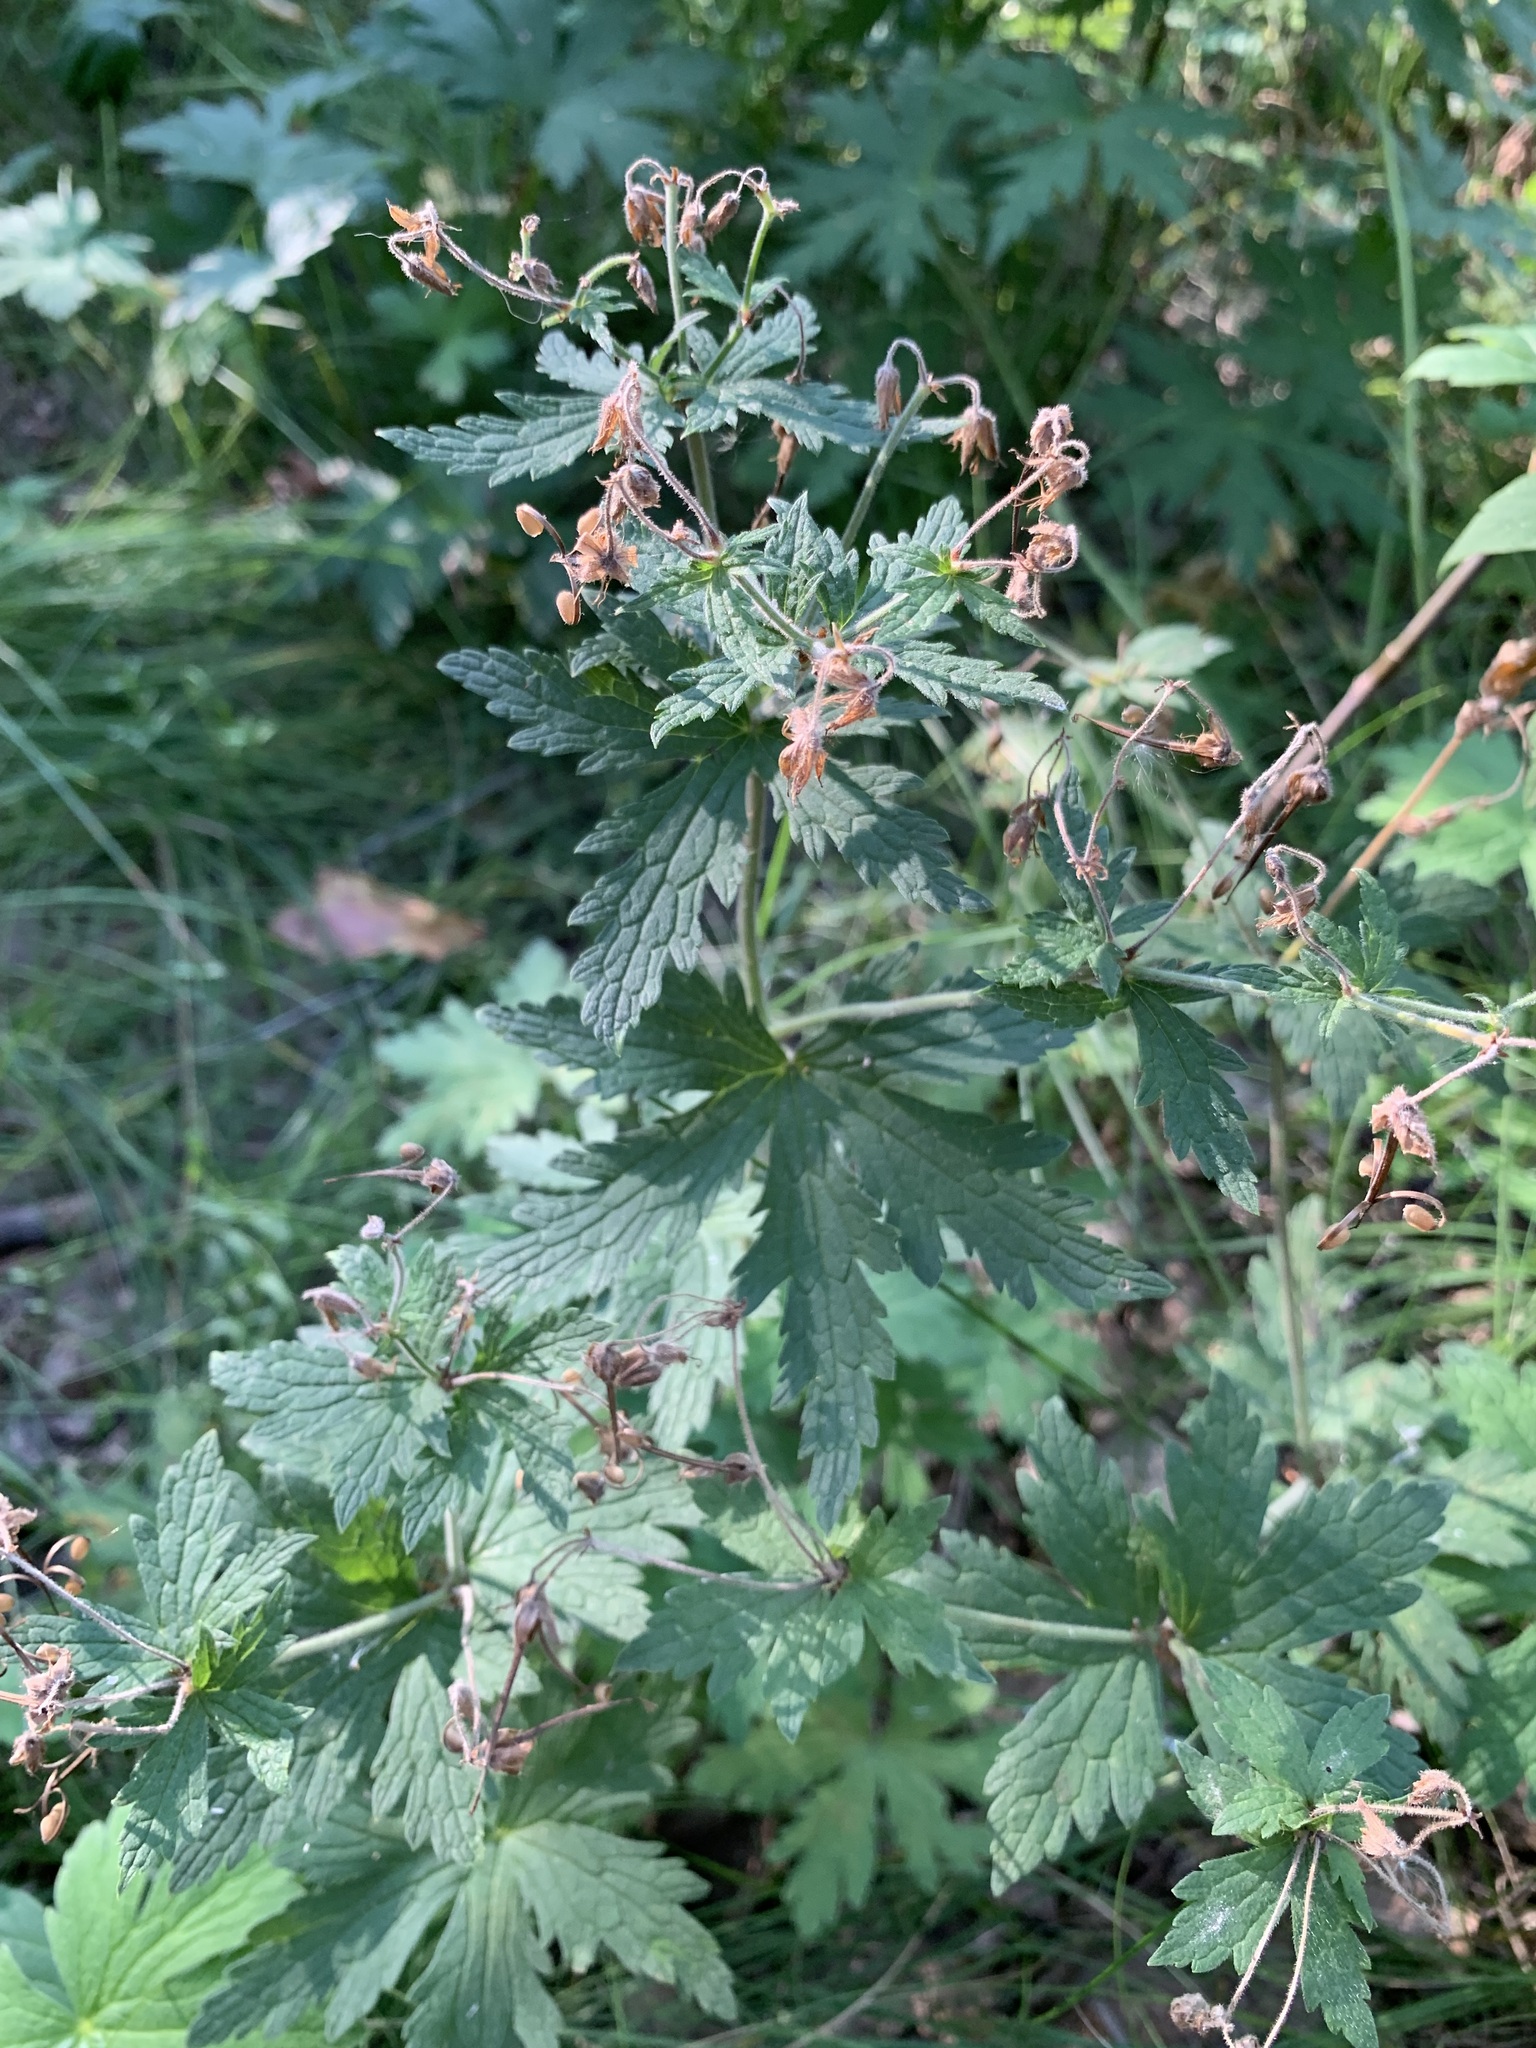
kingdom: Plantae
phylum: Tracheophyta
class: Magnoliopsida
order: Geraniales
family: Geraniaceae
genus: Geranium
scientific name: Geranium sylvaticum
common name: Wood crane's-bill
